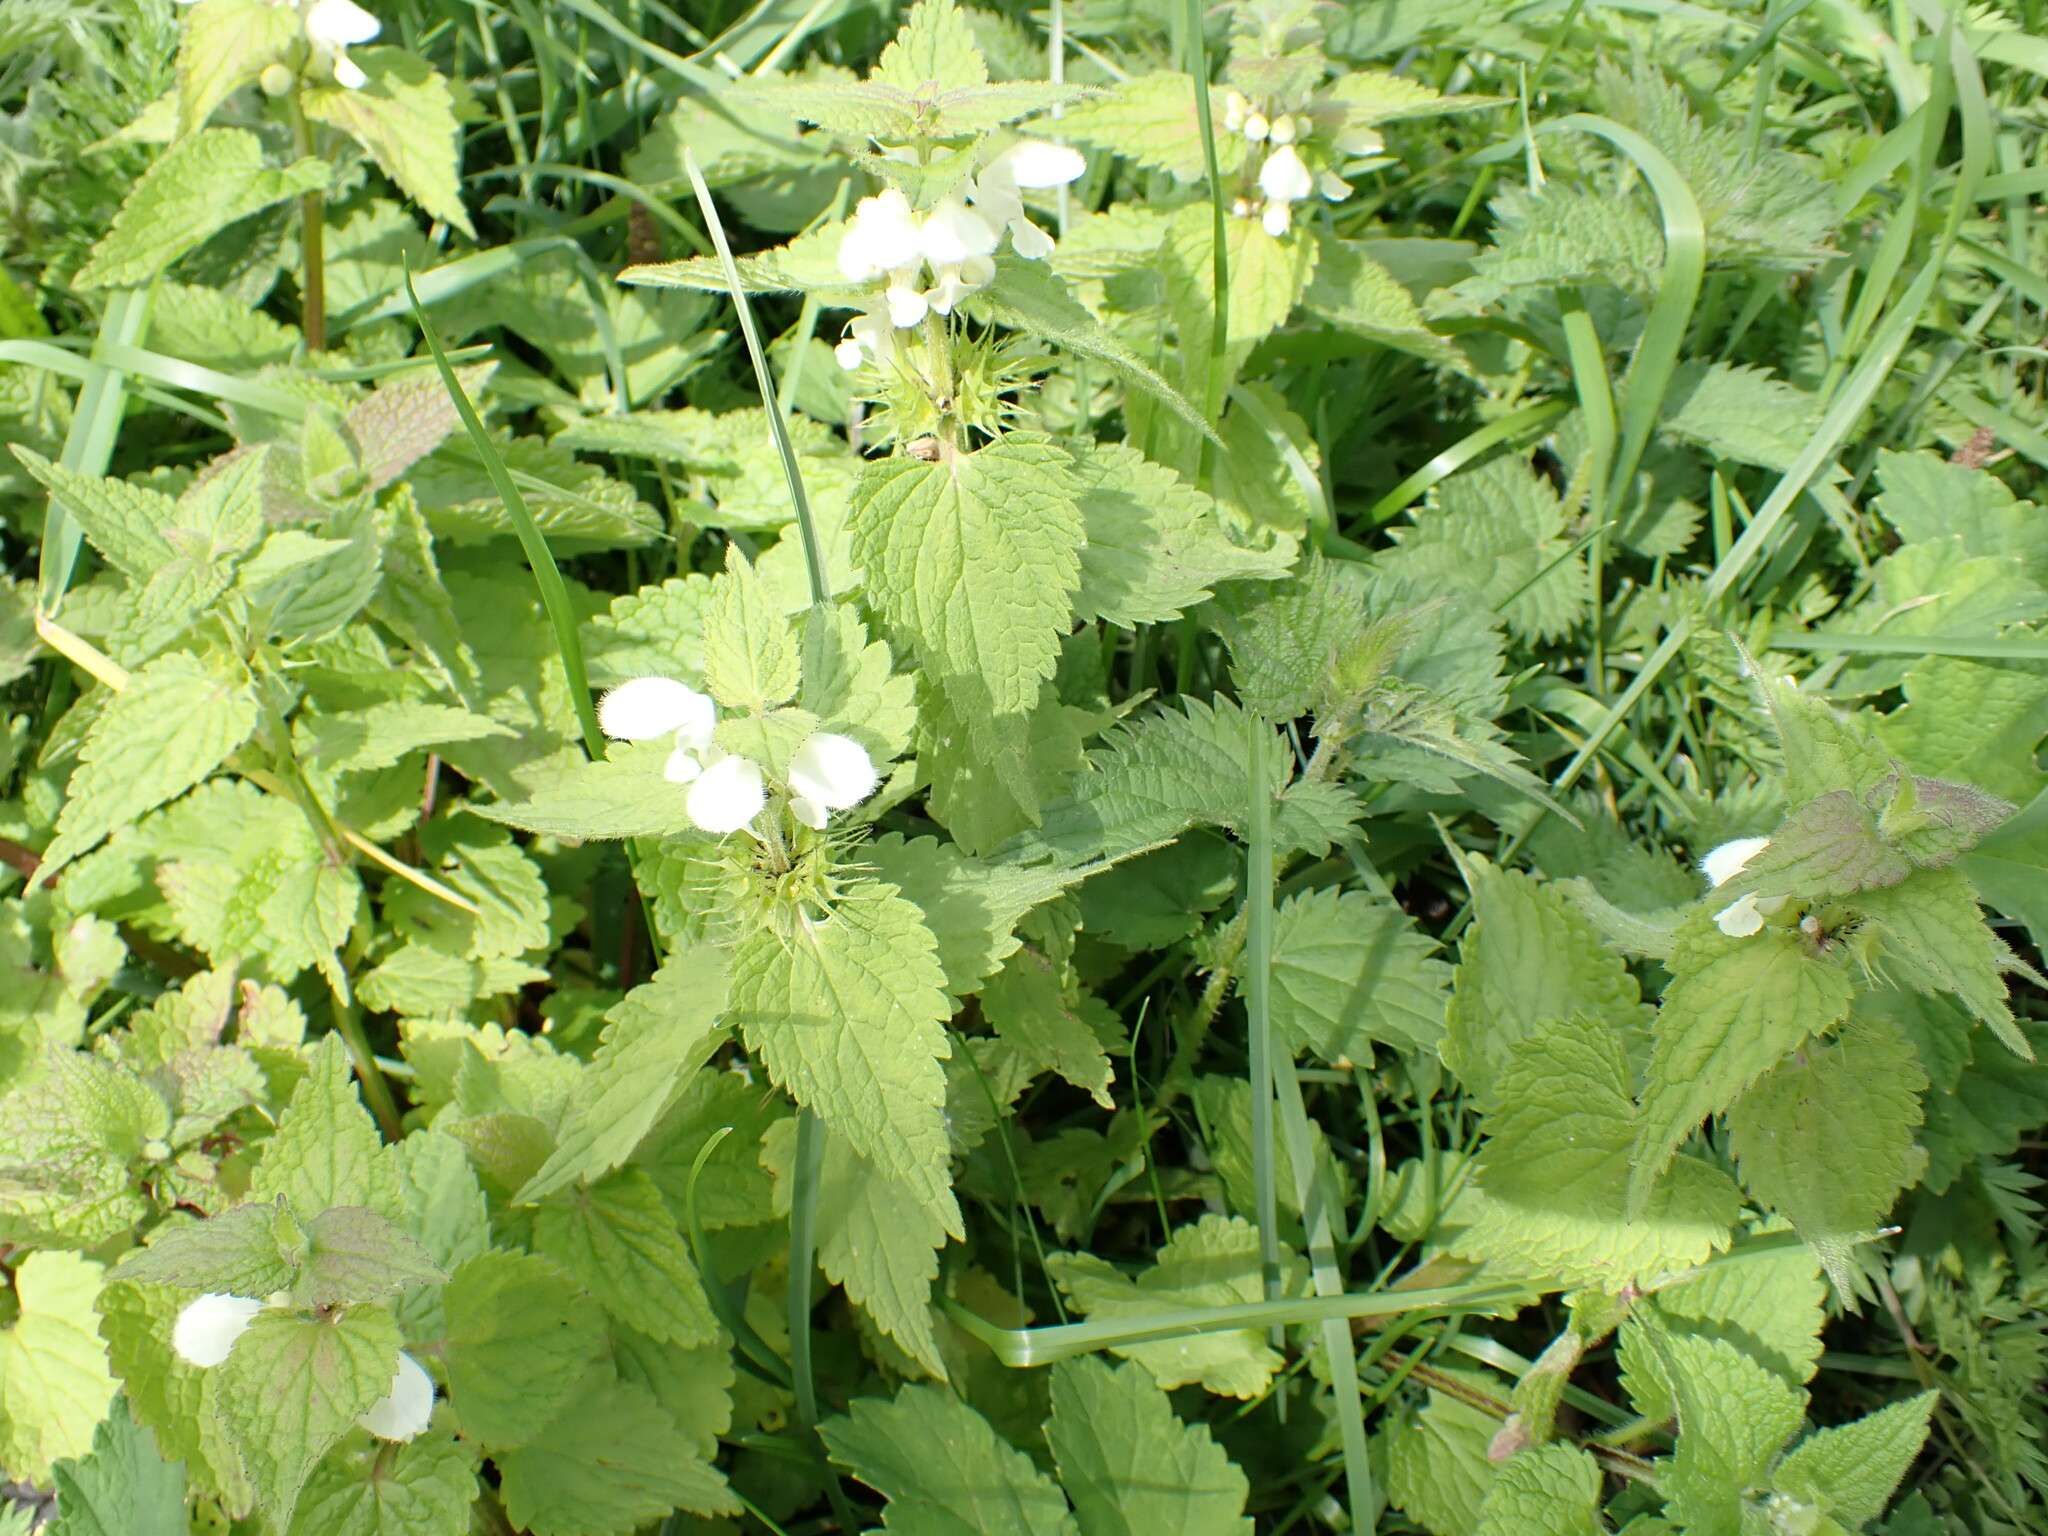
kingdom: Plantae
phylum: Tracheophyta
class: Magnoliopsida
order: Lamiales
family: Lamiaceae
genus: Lamium
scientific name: Lamium album
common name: White dead-nettle
